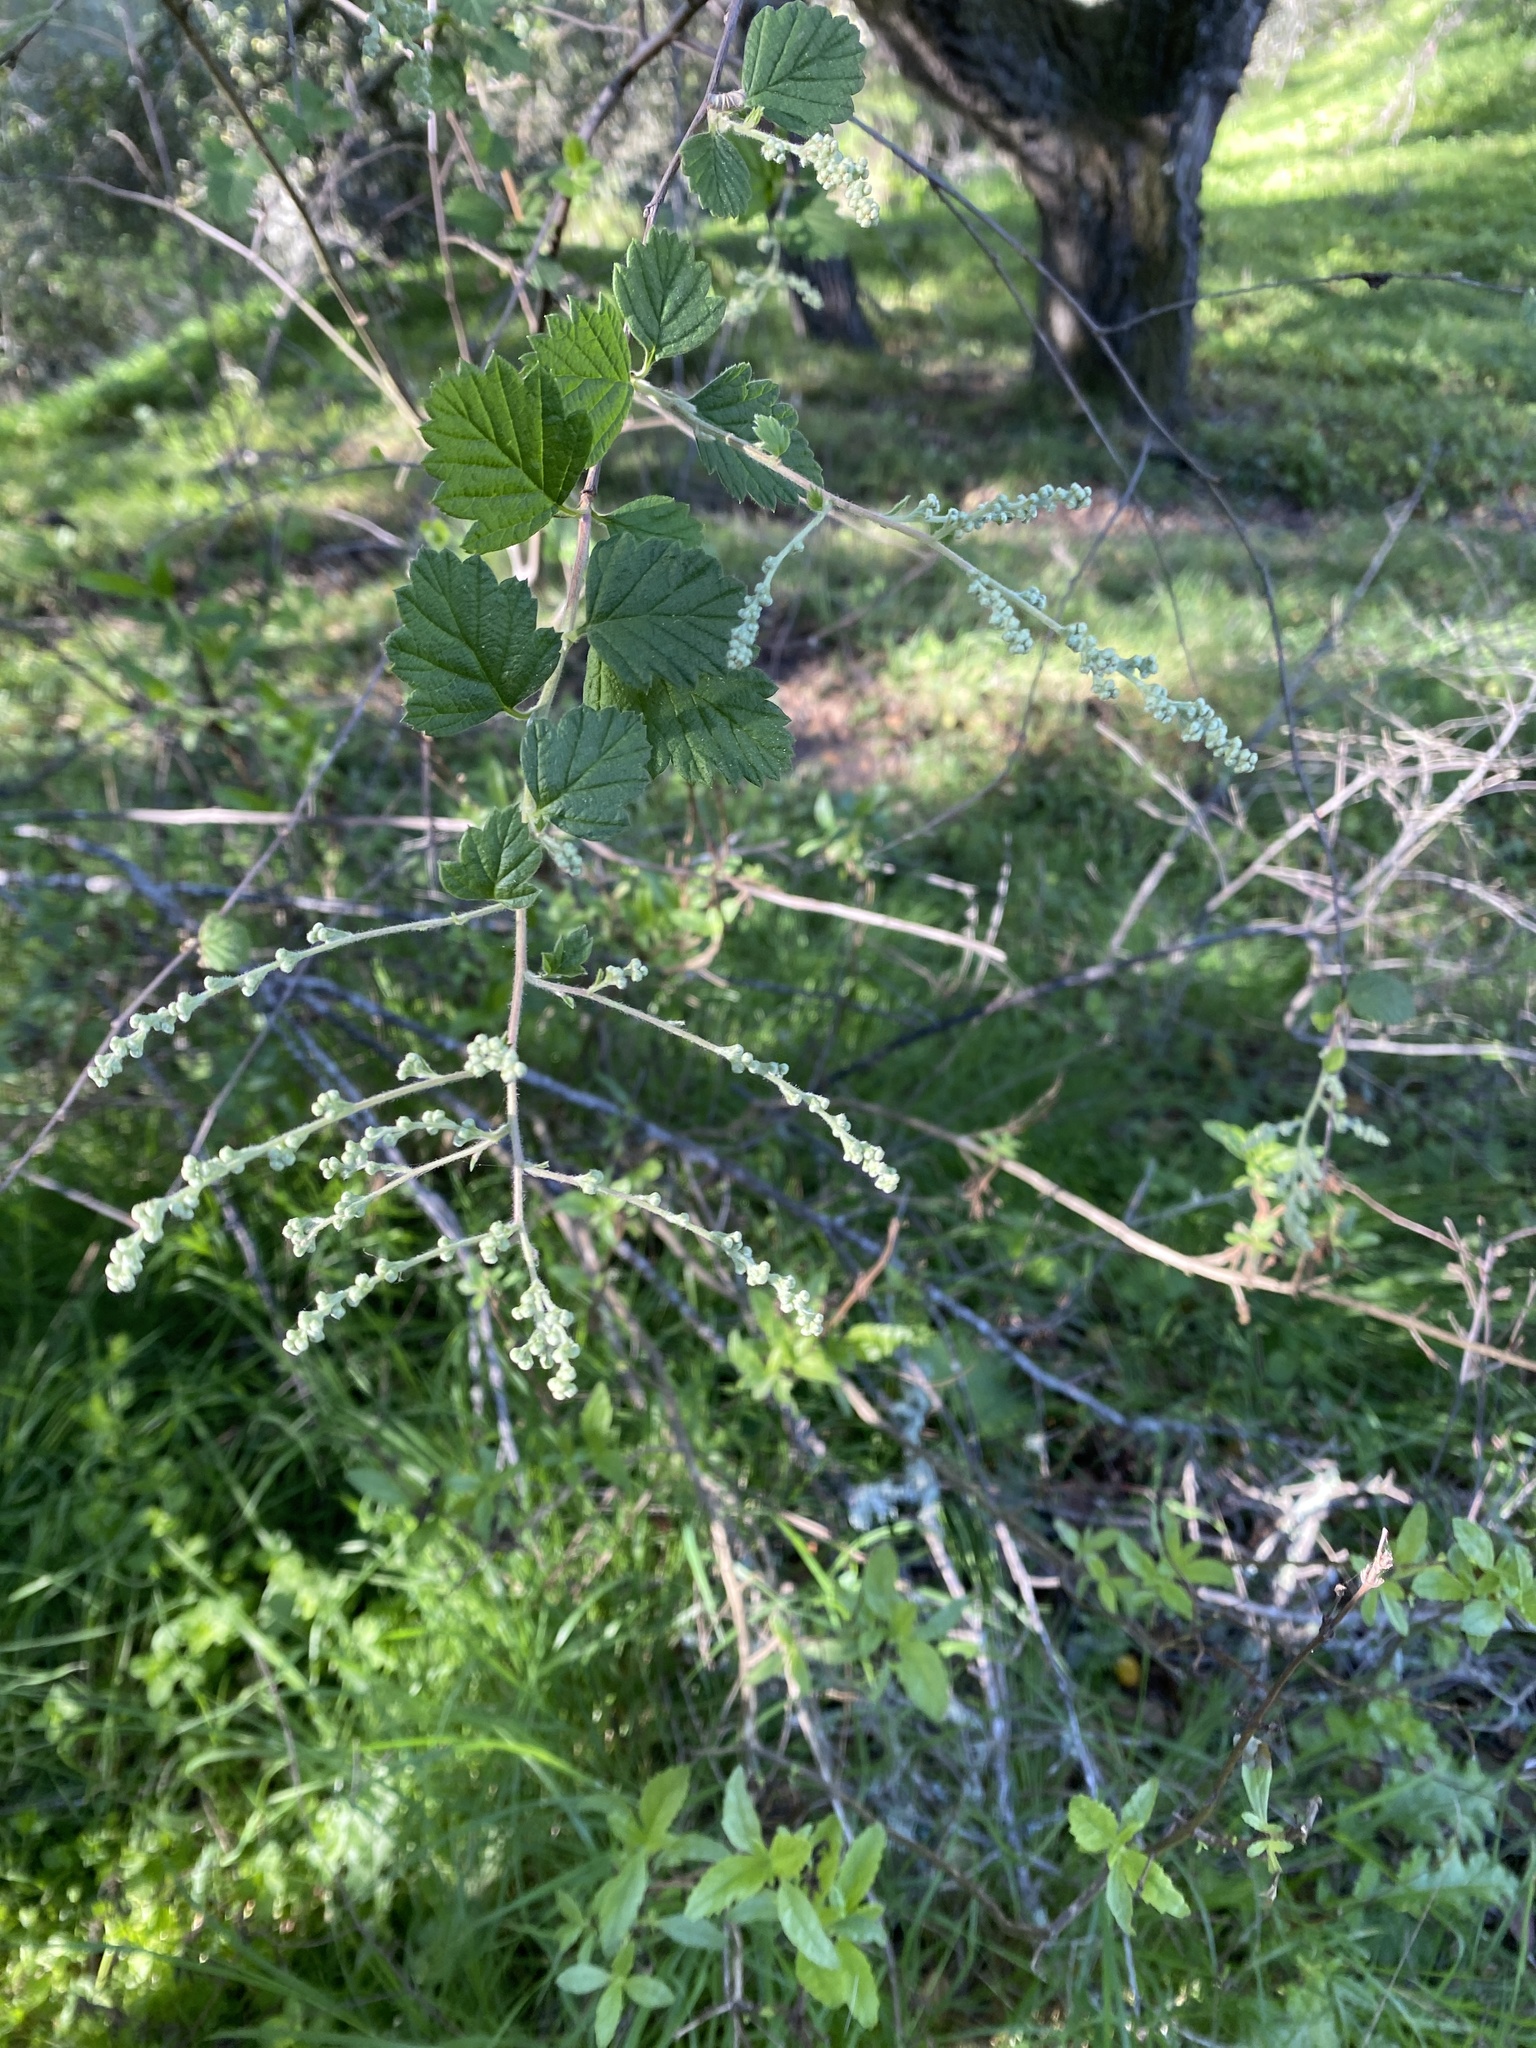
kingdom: Plantae
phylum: Tracheophyta
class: Magnoliopsida
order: Rosales
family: Rosaceae
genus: Holodiscus
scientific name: Holodiscus discolor
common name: Oceanspray
